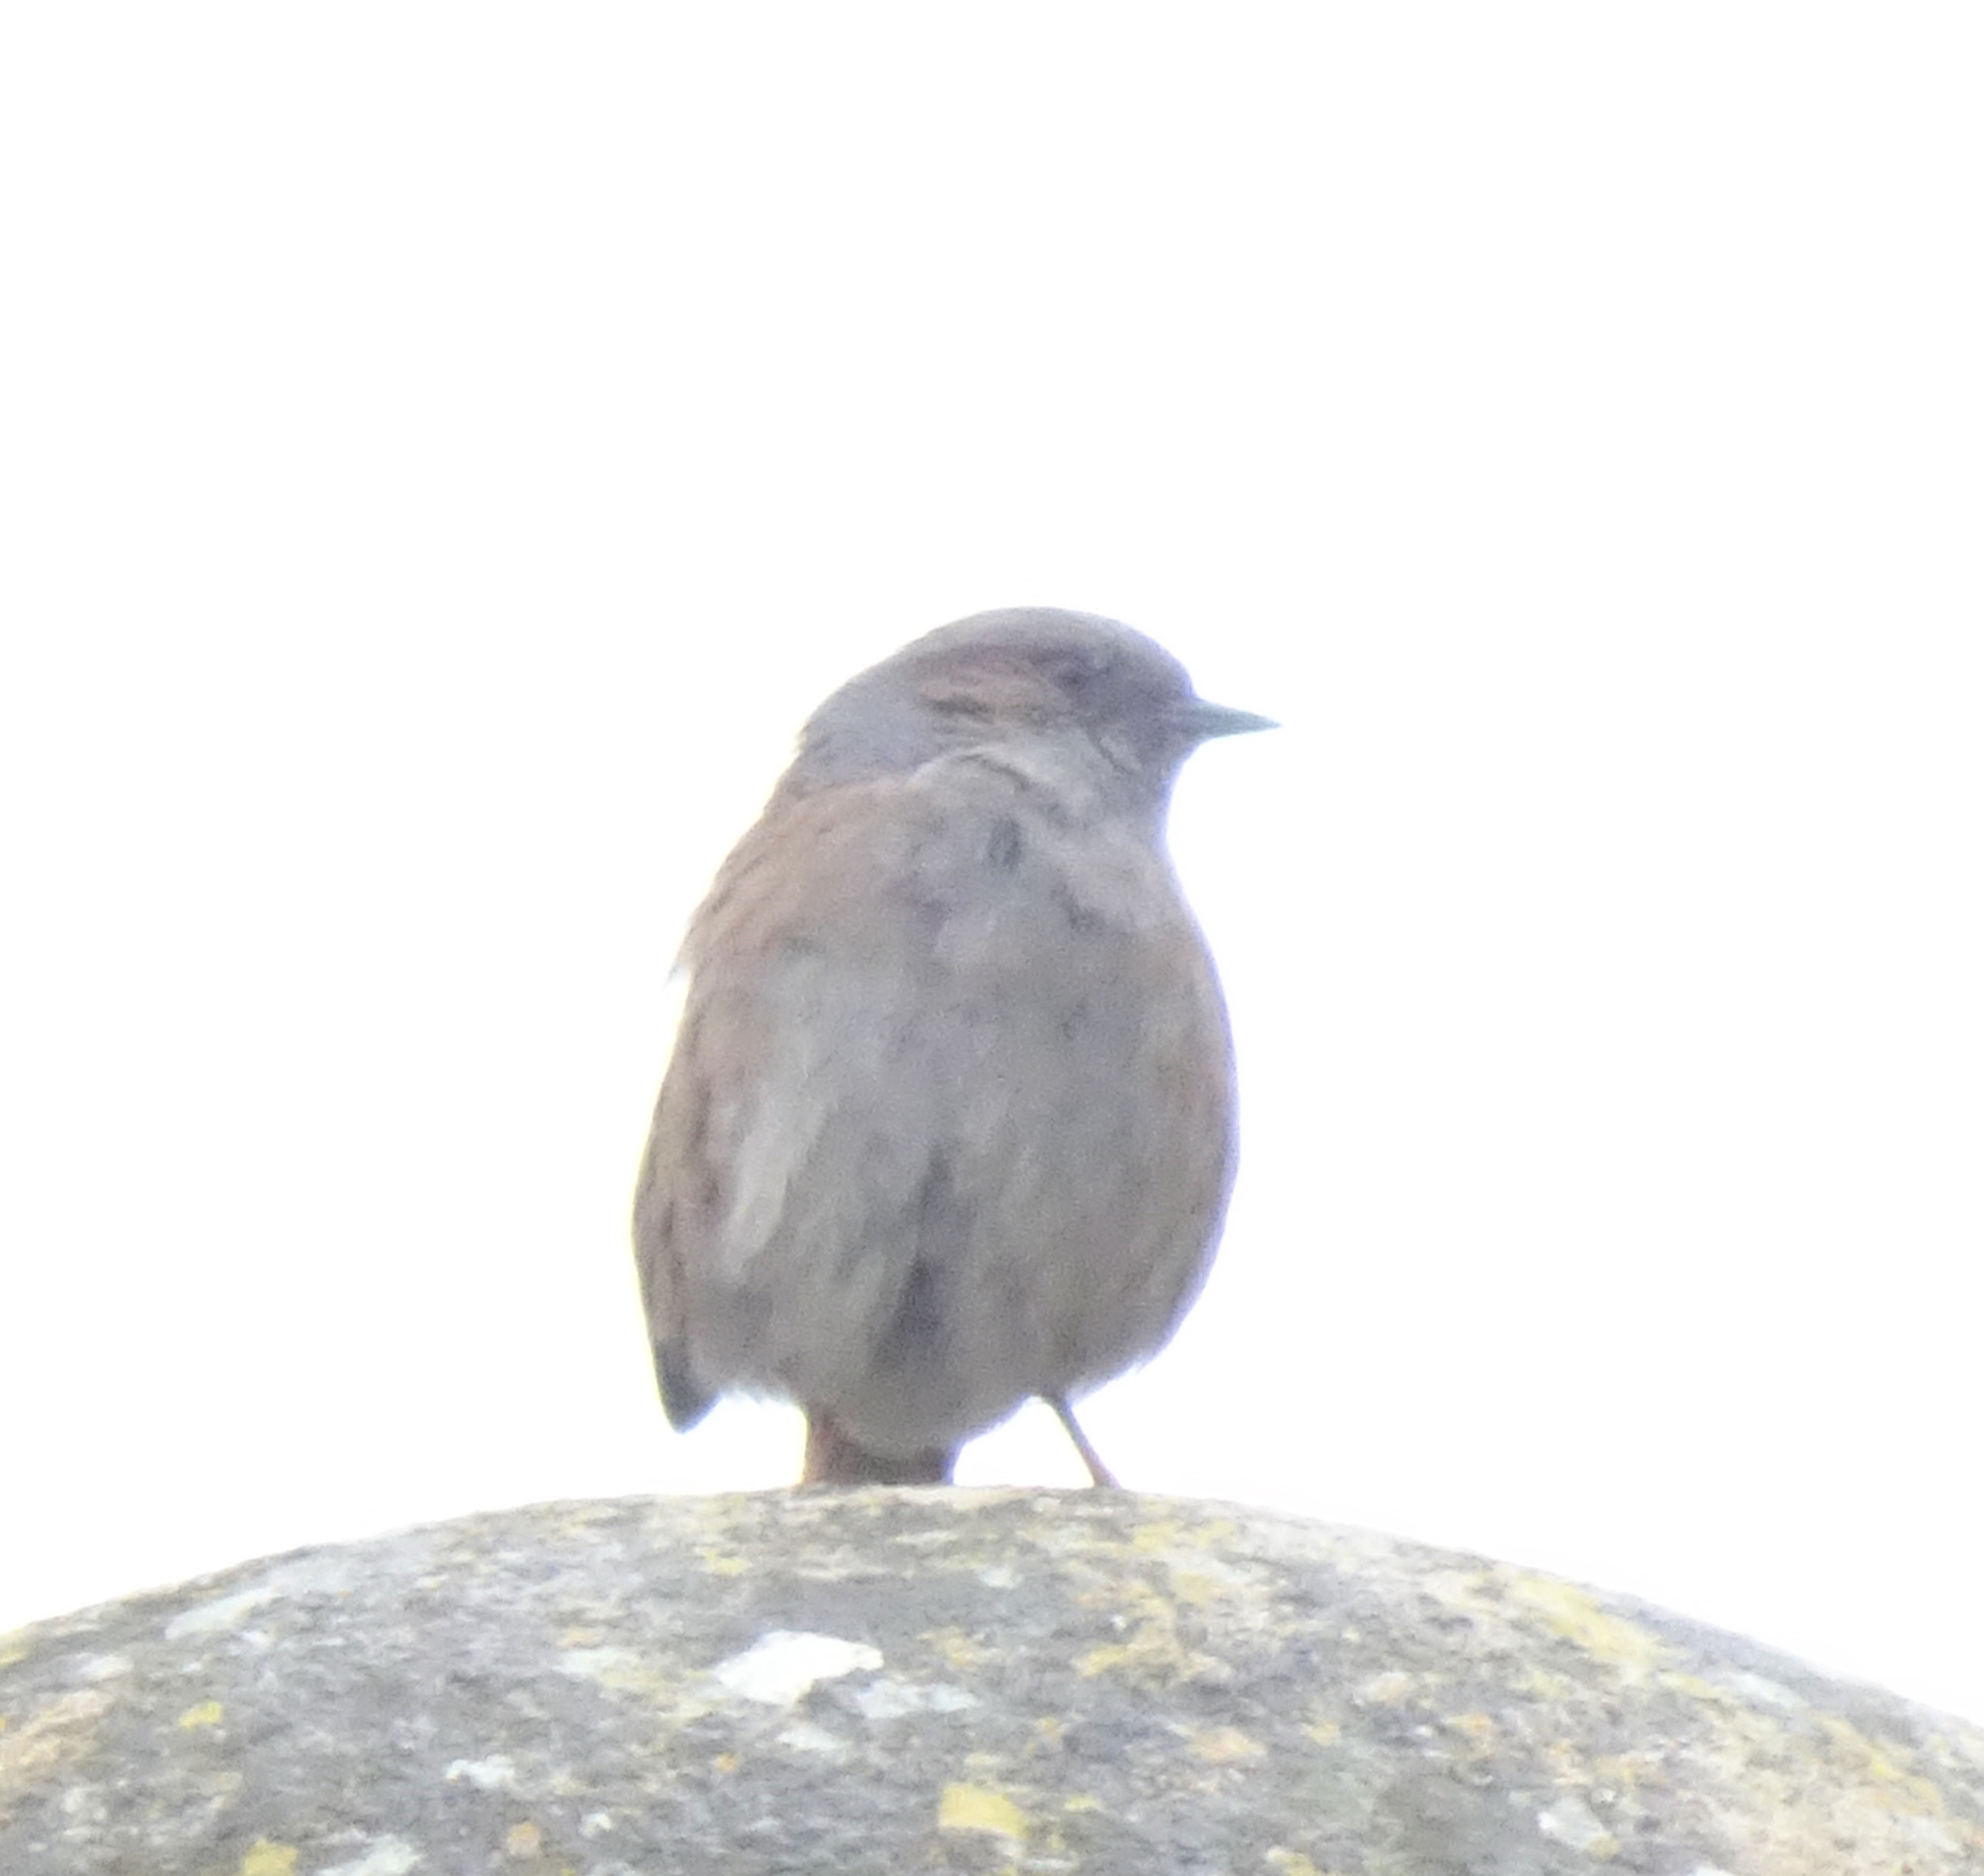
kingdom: Animalia
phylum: Chordata
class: Aves
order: Passeriformes
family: Prunellidae
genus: Prunella
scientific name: Prunella modularis
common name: Dunnock
